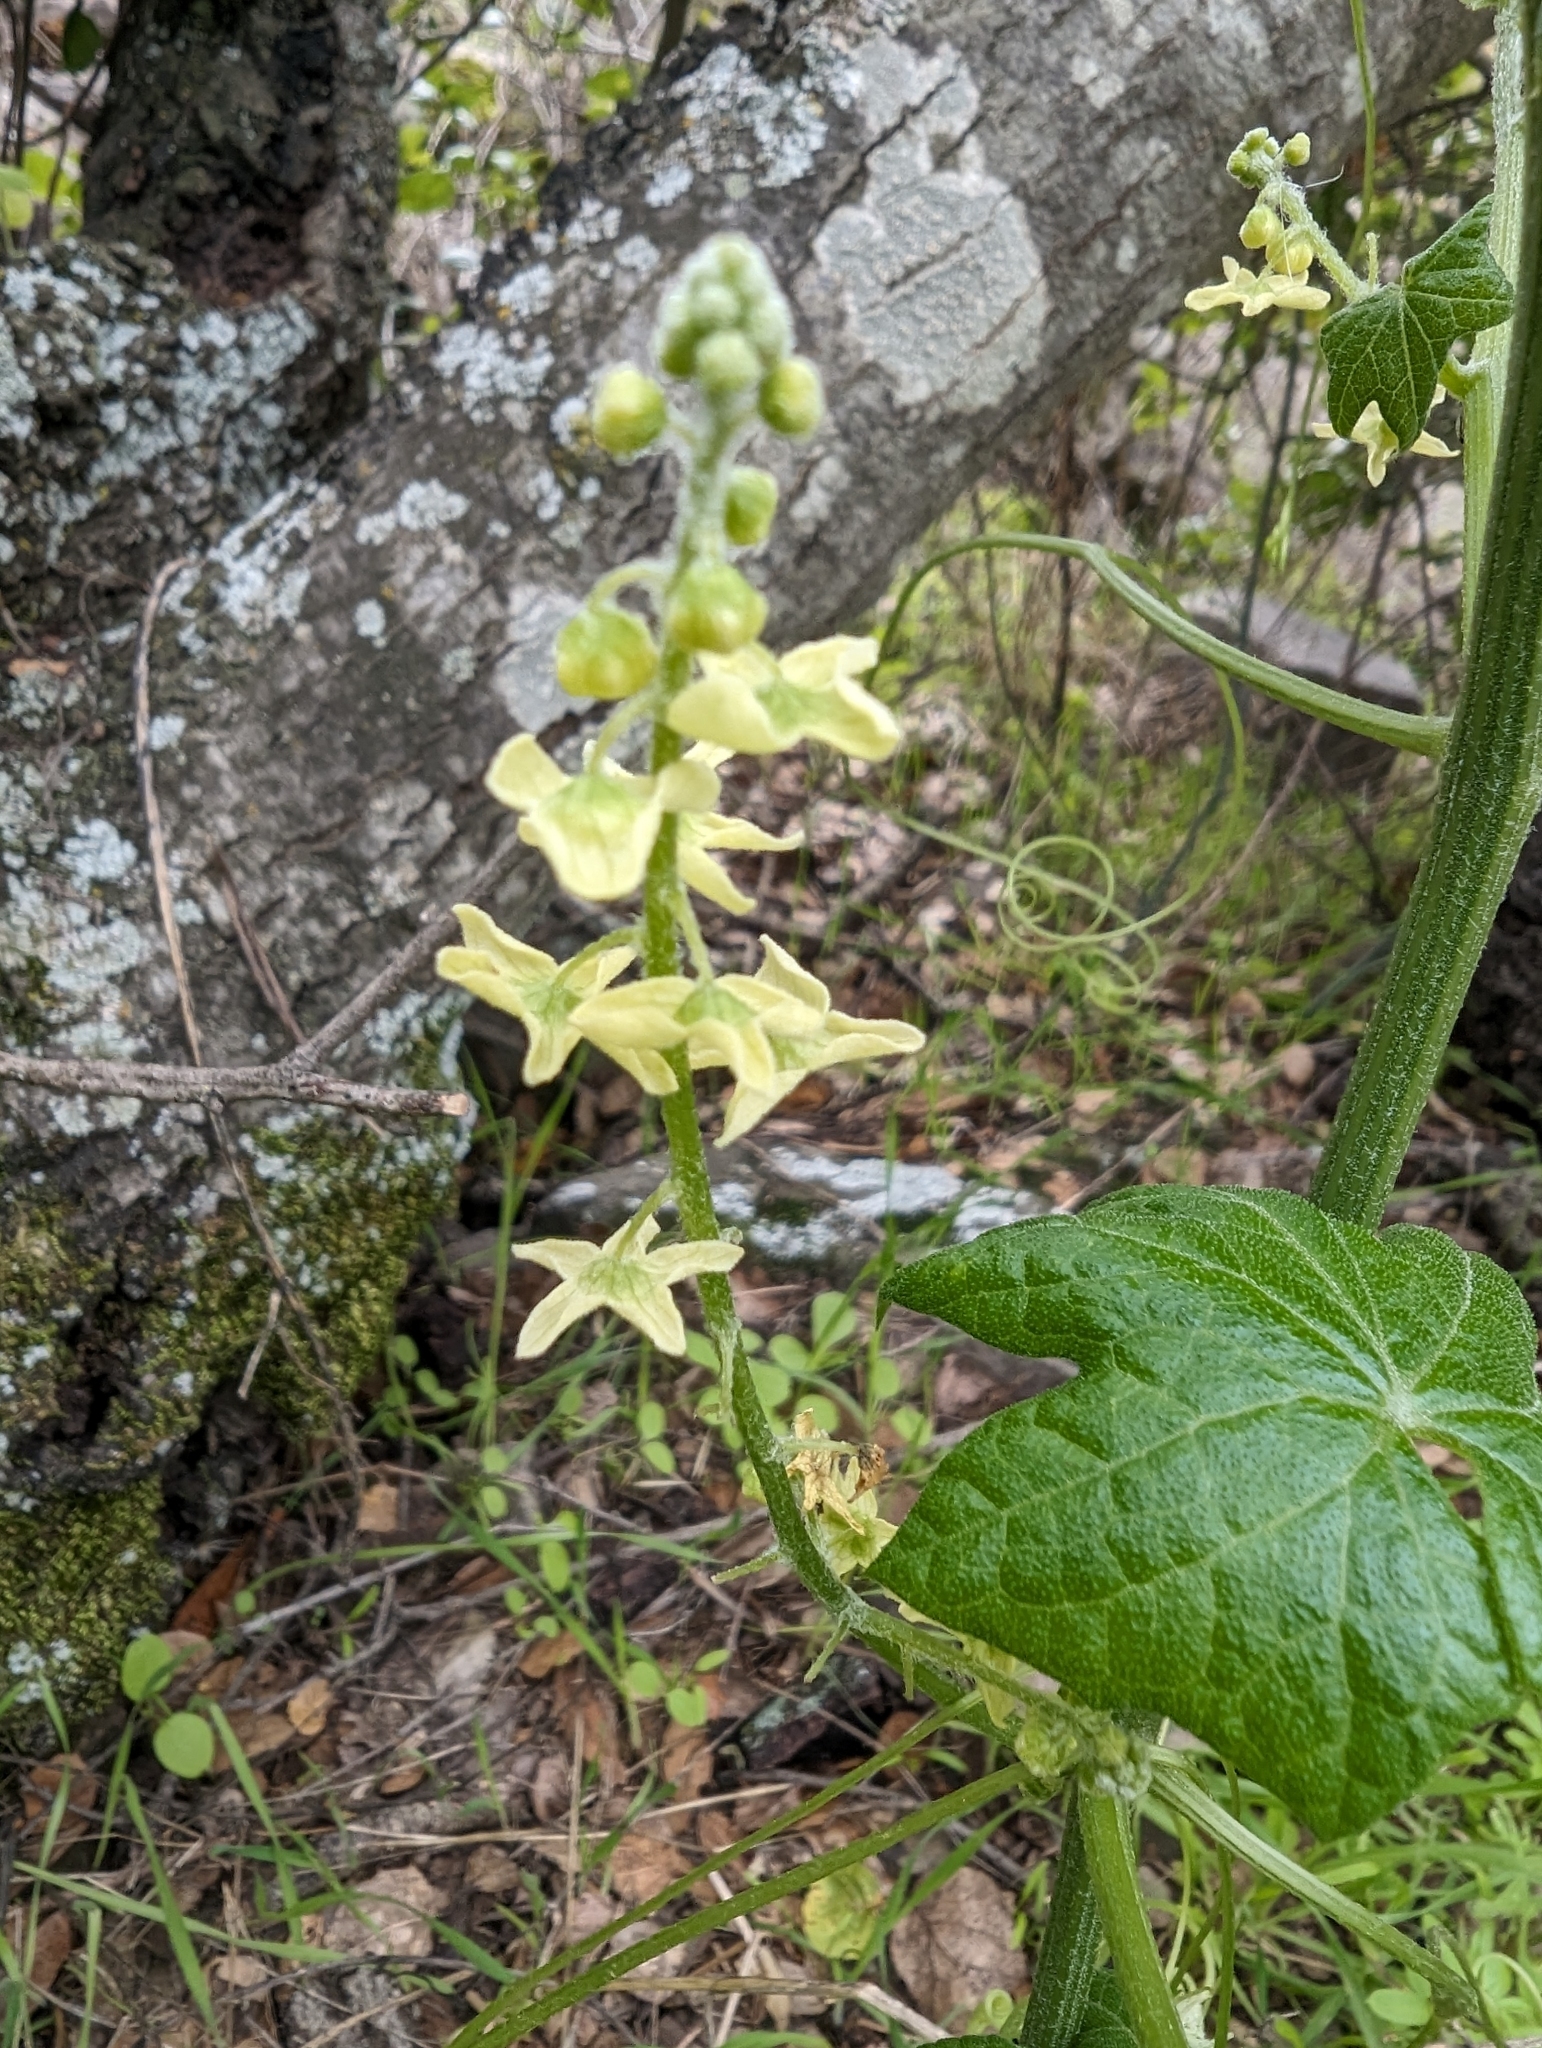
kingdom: Plantae
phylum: Tracheophyta
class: Magnoliopsida
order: Cucurbitales
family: Cucurbitaceae
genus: Marah
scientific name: Marah fabacea
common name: California manroot
